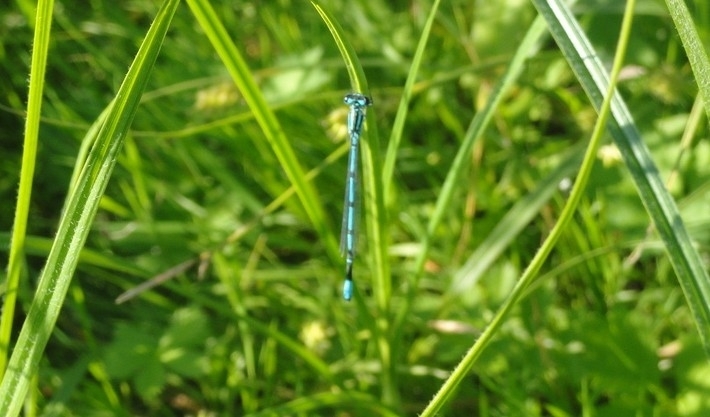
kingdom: Animalia
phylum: Arthropoda
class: Insecta
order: Odonata
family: Coenagrionidae
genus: Coenagrion
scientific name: Coenagrion puella
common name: Azure damselfly
